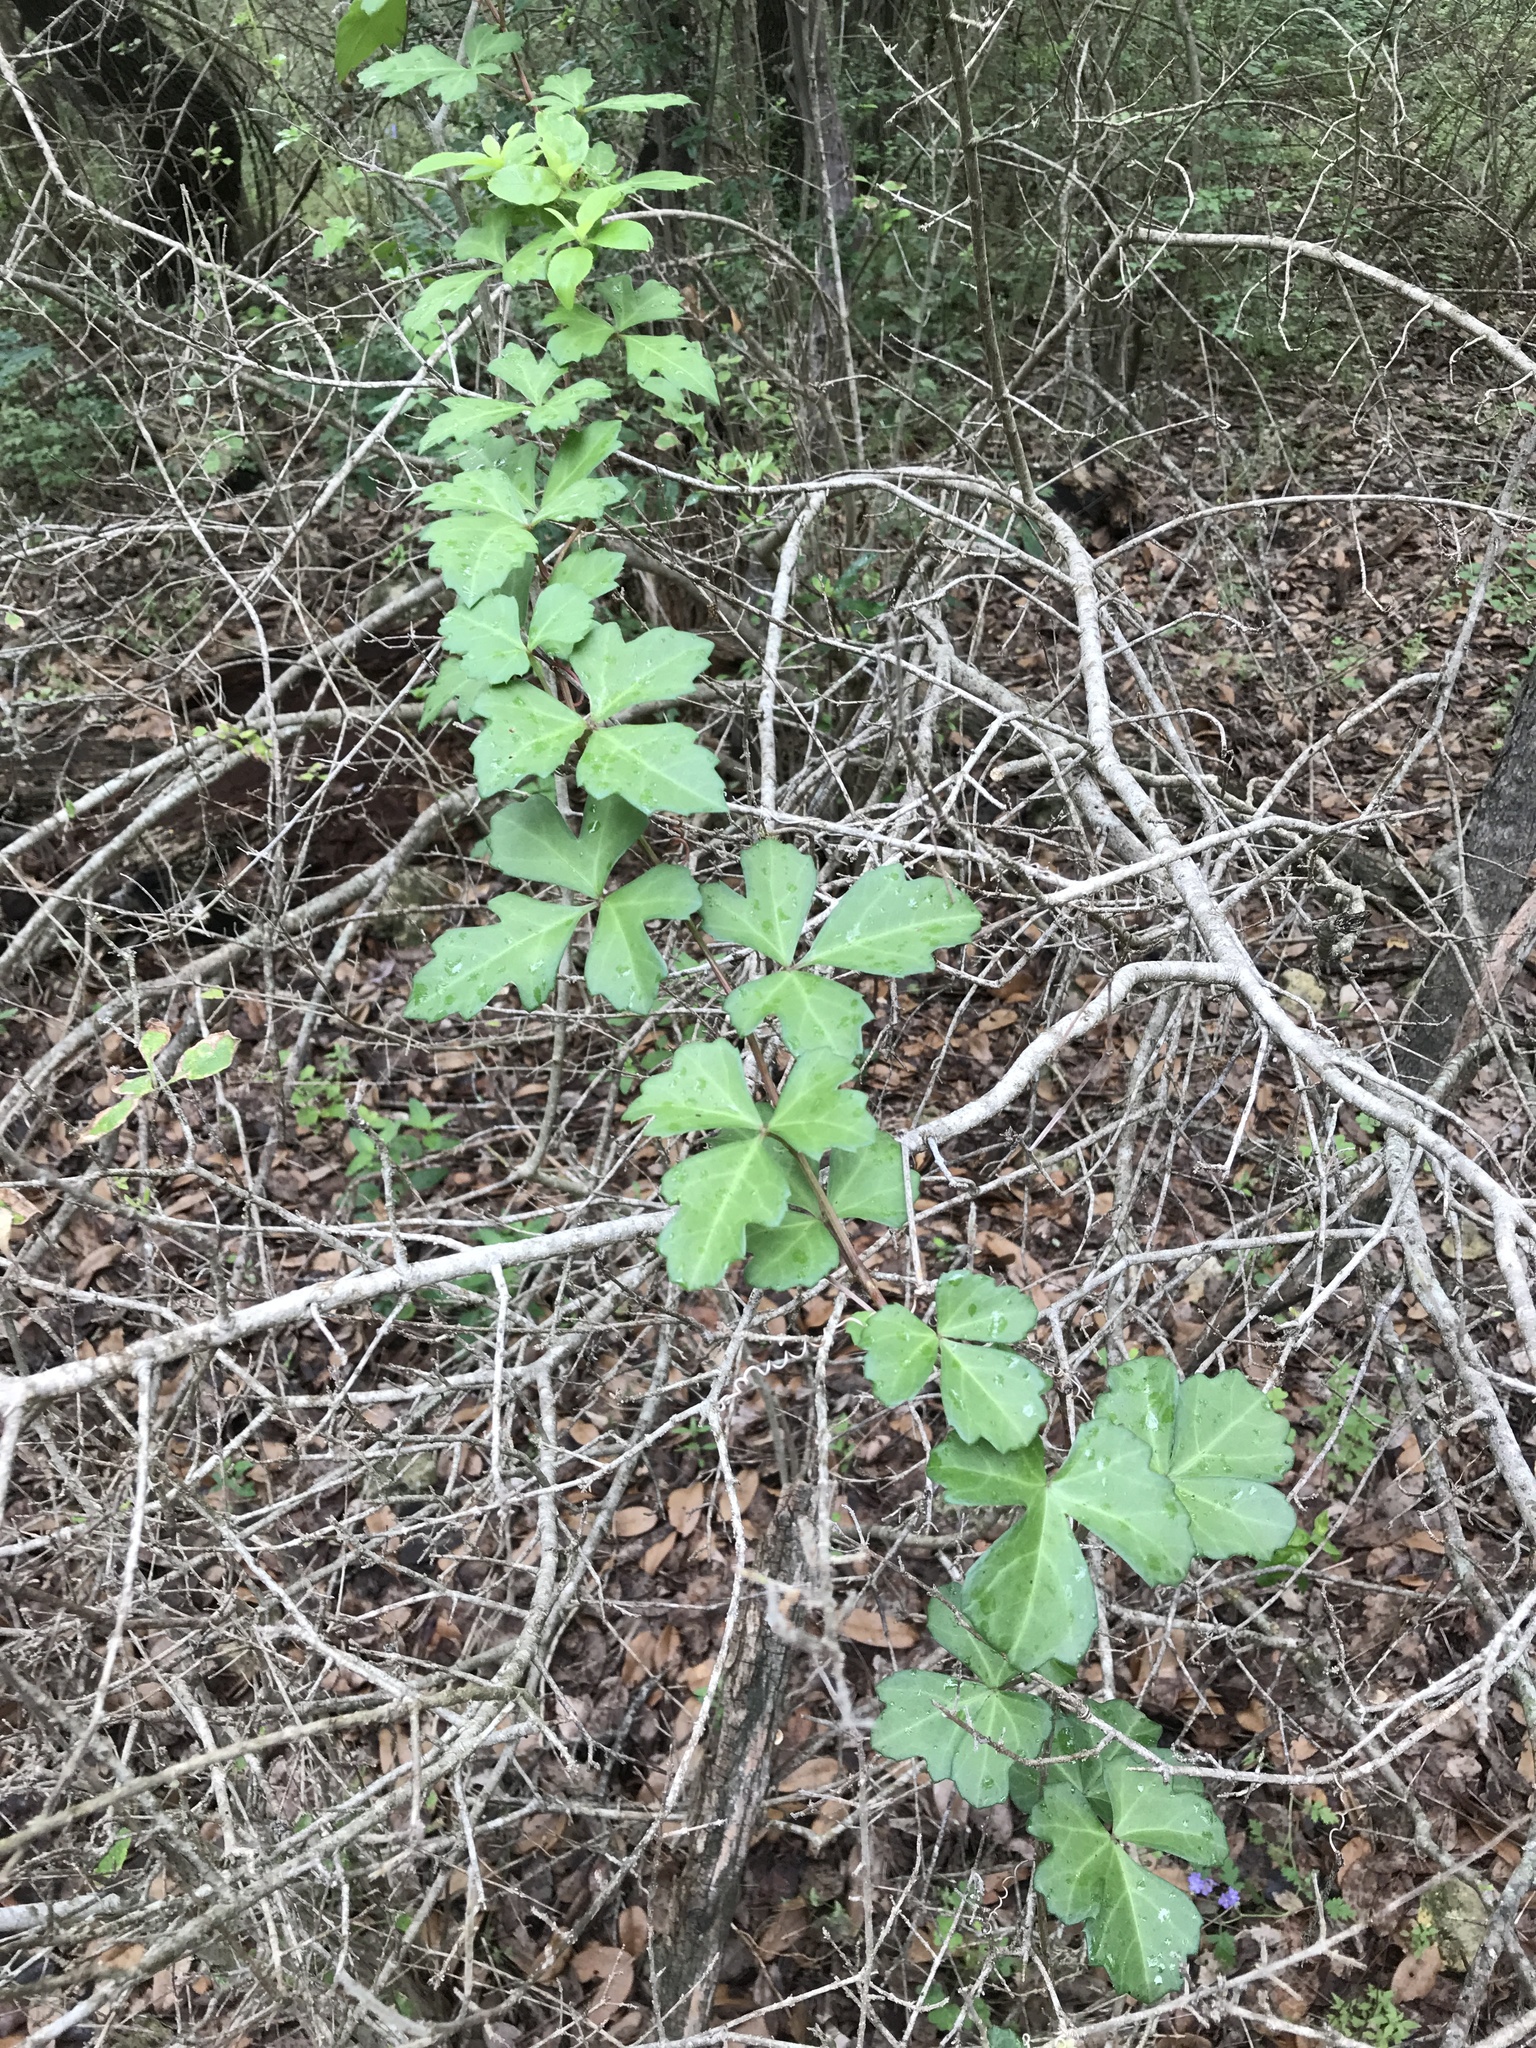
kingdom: Plantae
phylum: Tracheophyta
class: Magnoliopsida
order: Vitales
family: Vitaceae
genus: Cissus
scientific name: Cissus trifoliata
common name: Vine-sorrel
